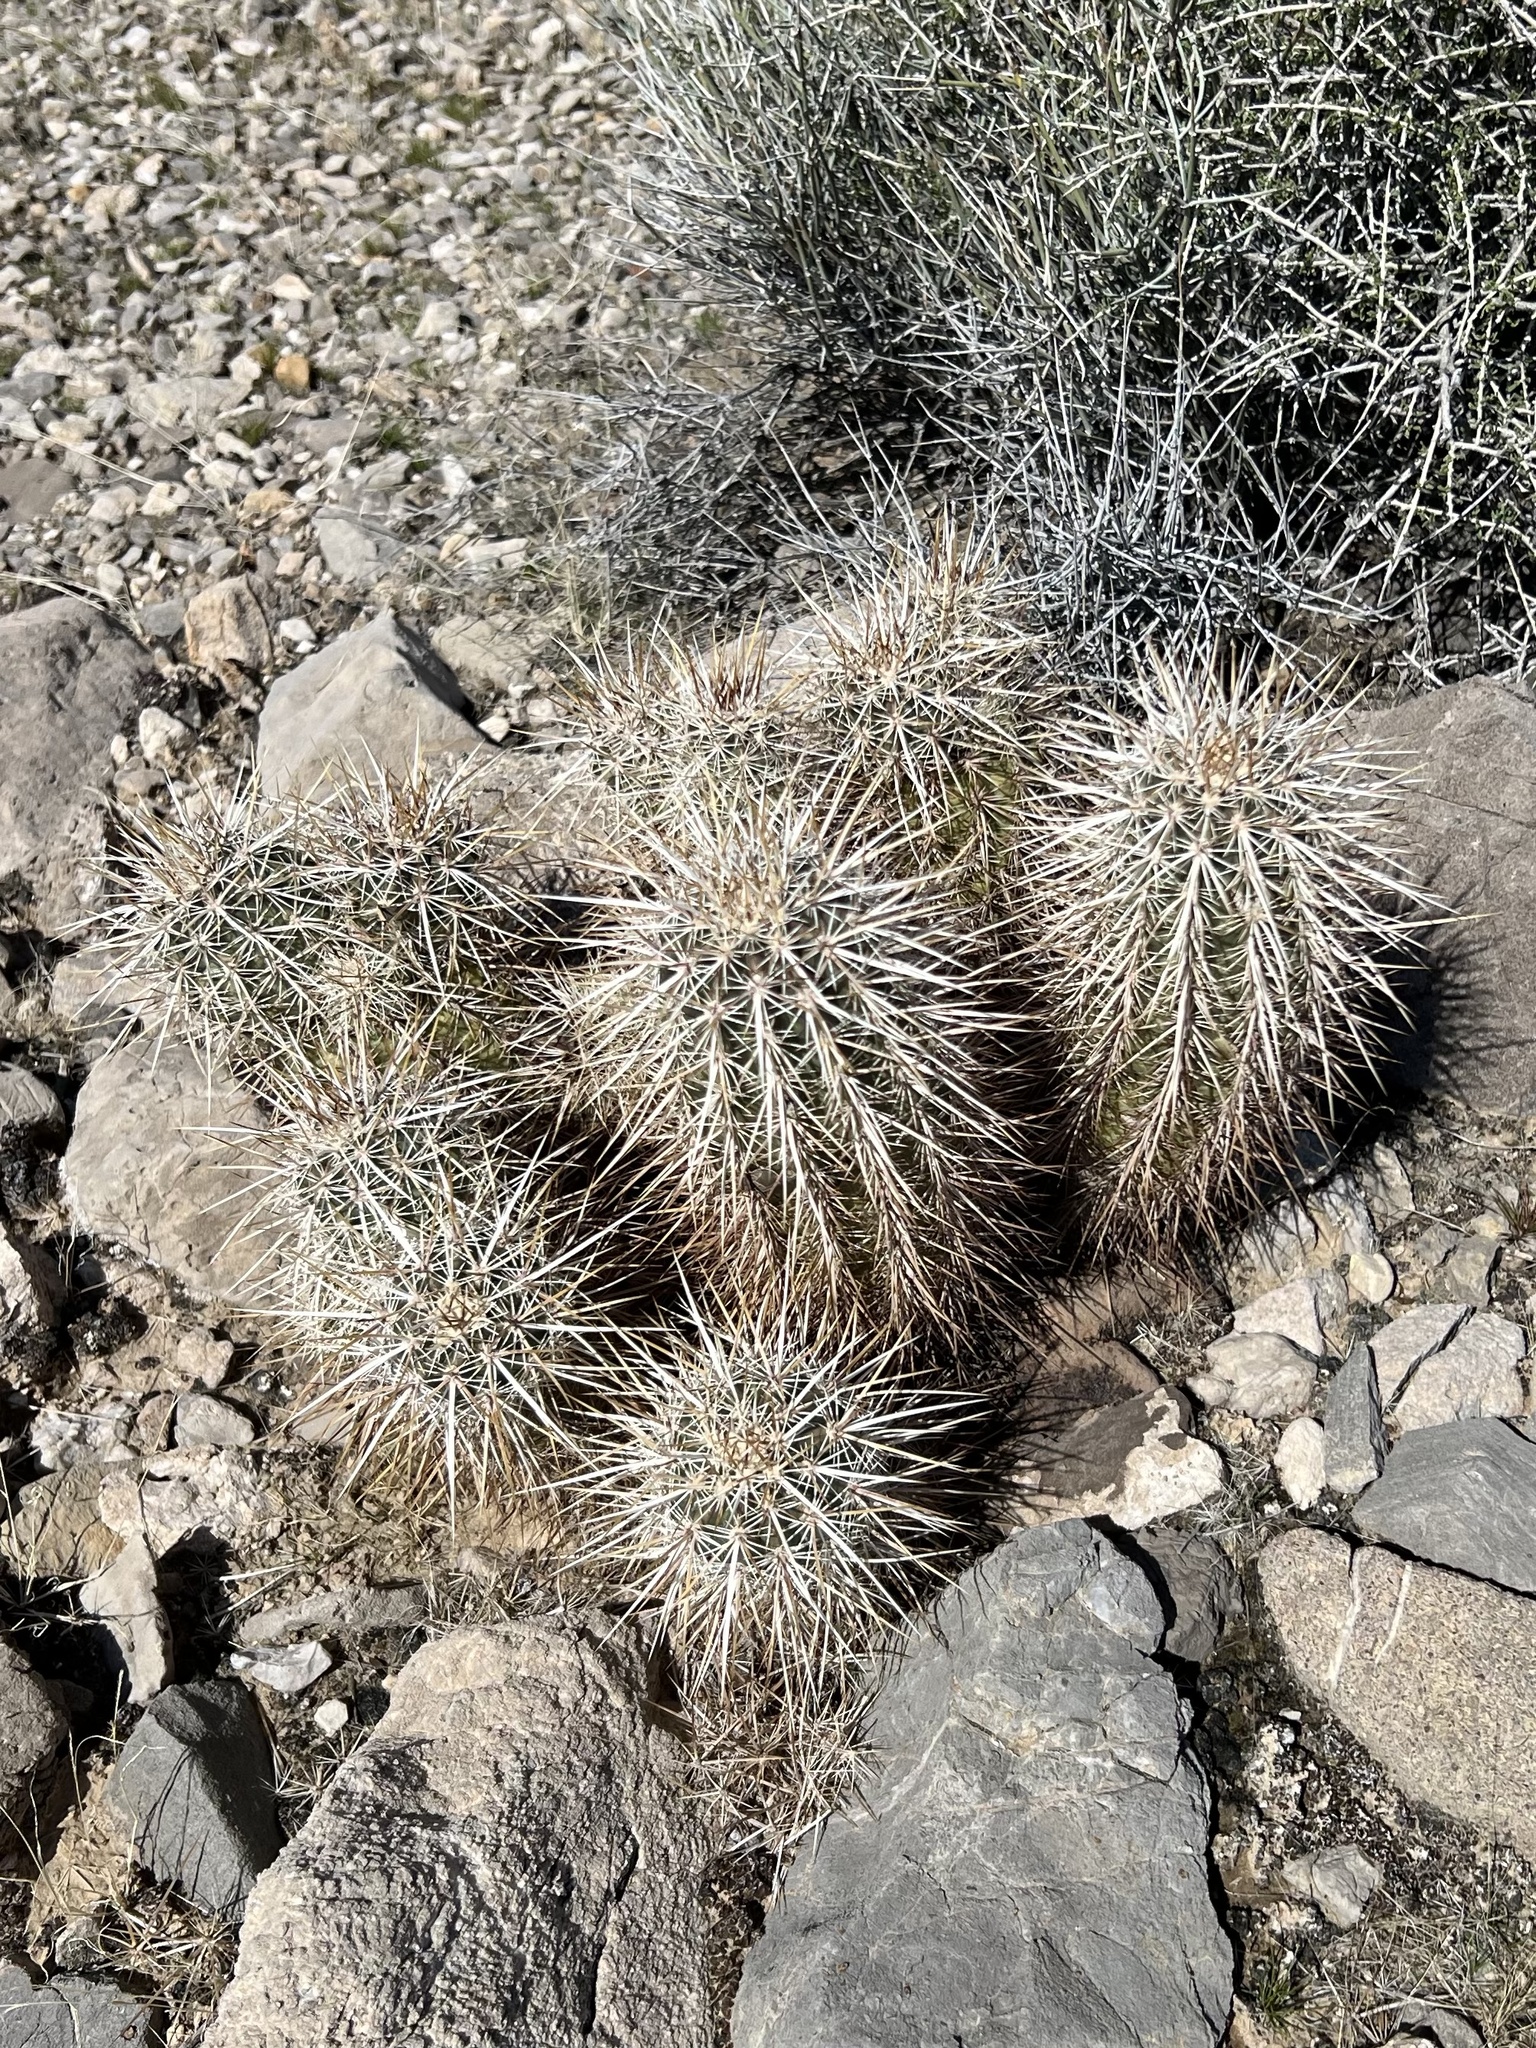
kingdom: Plantae
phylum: Tracheophyta
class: Magnoliopsida
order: Caryophyllales
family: Cactaceae
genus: Echinocereus
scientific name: Echinocereus engelmannii
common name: Engelmann's hedgehog cactus
